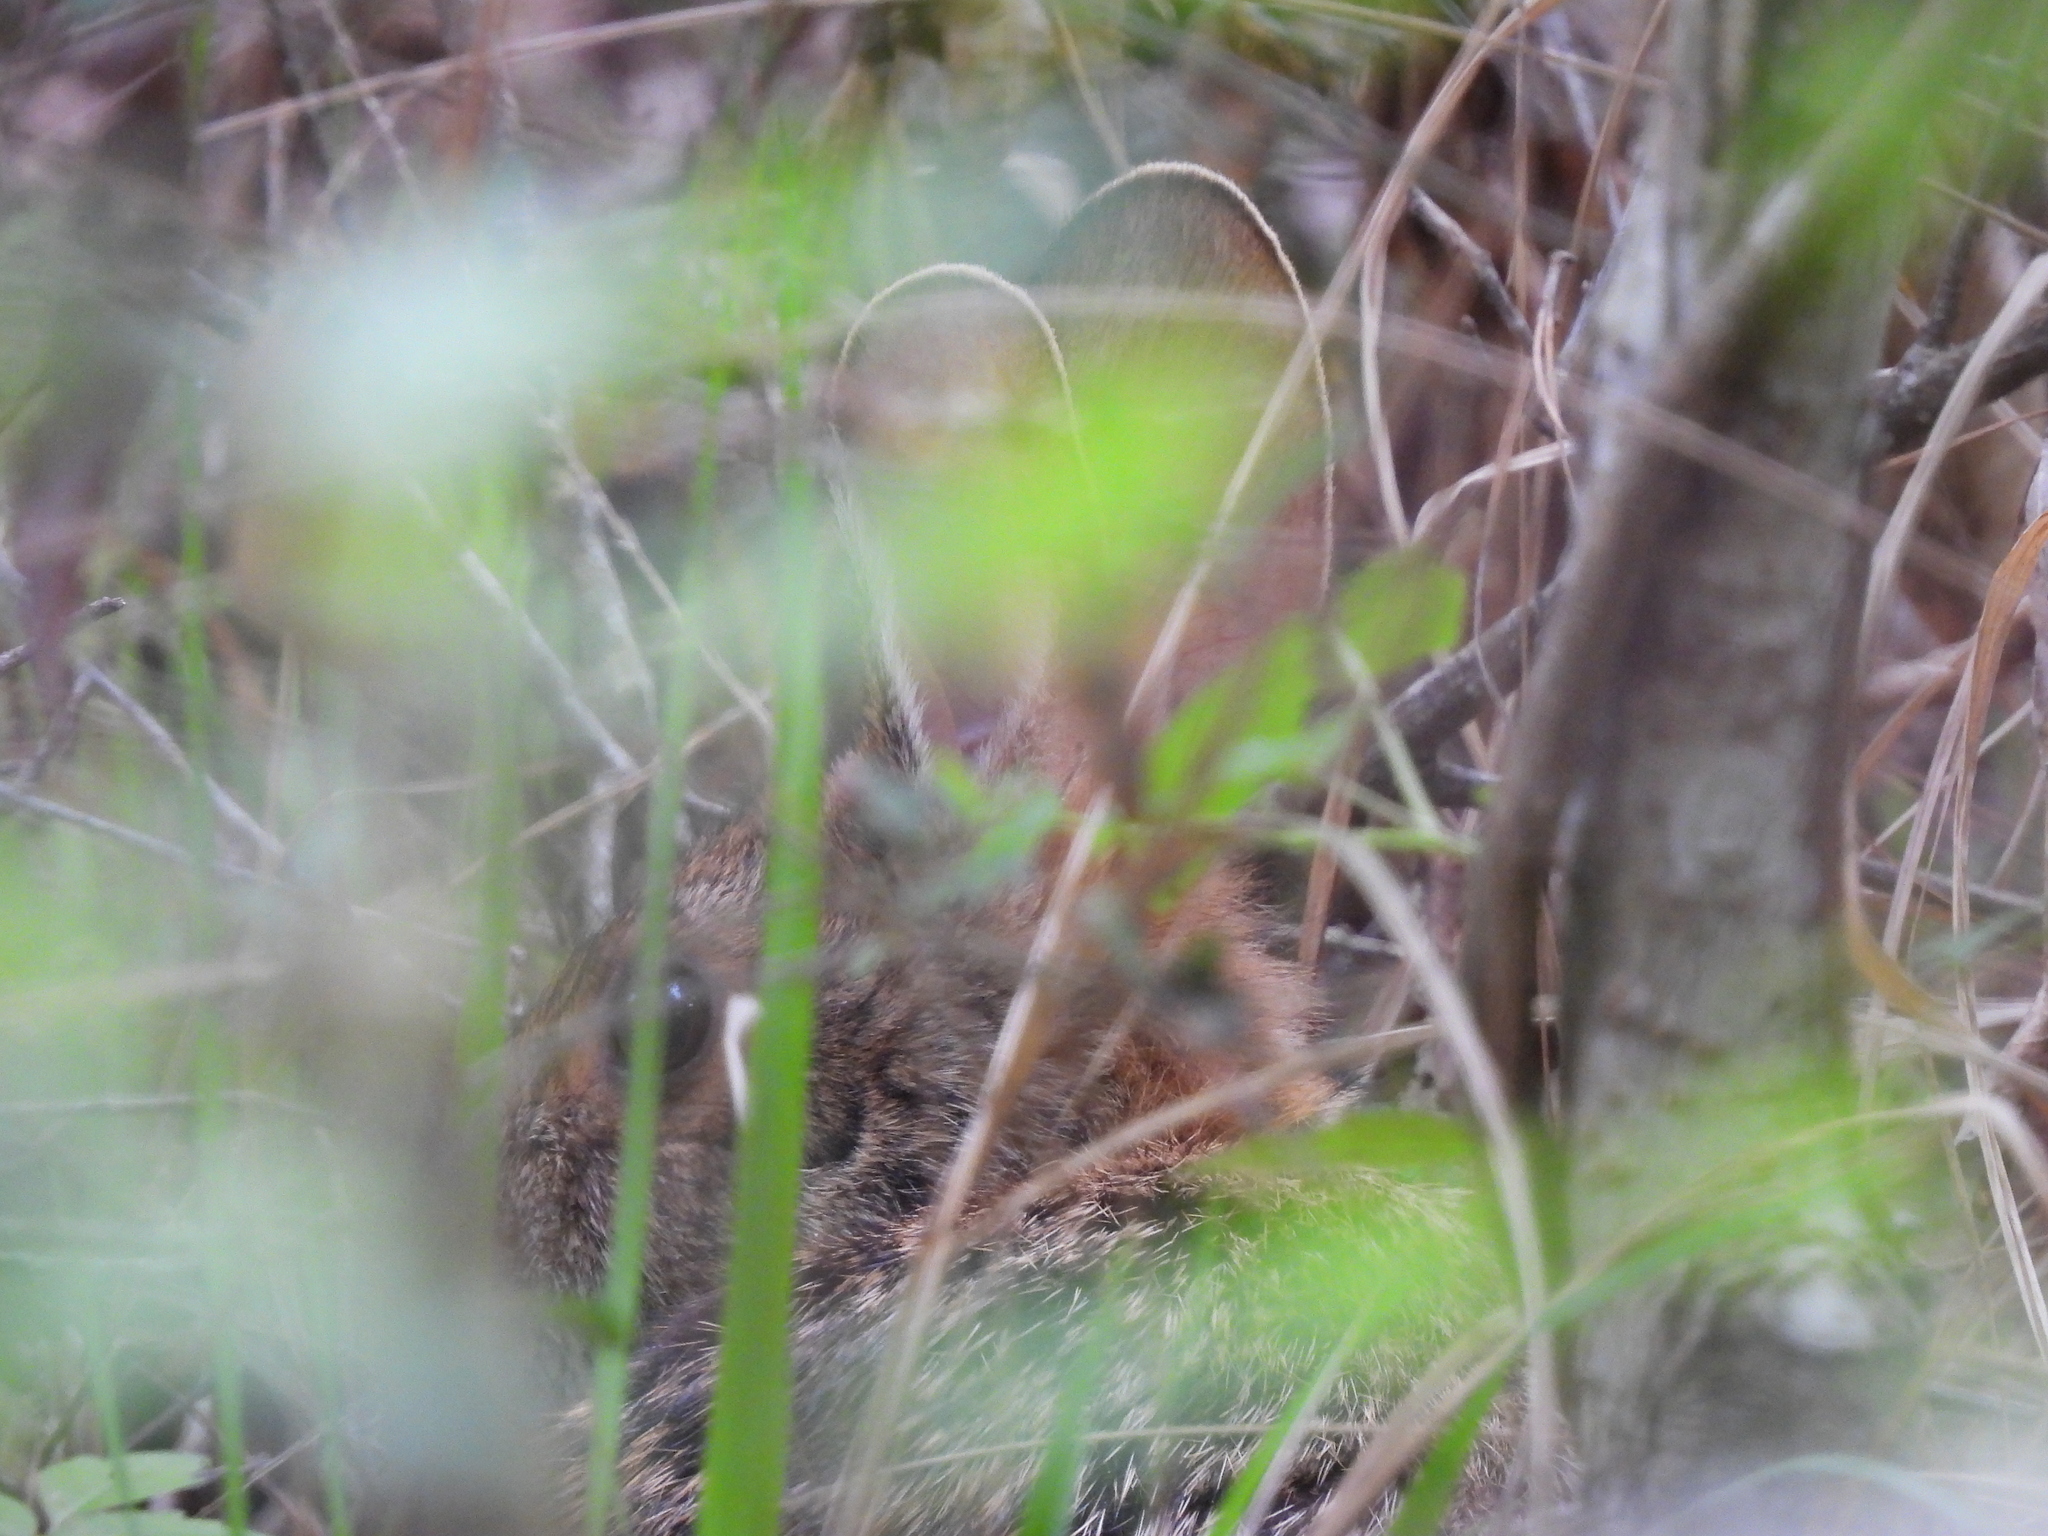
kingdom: Animalia
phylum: Chordata
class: Mammalia
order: Lagomorpha
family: Leporidae
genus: Sylvilagus
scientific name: Sylvilagus aquaticus
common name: Swamp rabbit
